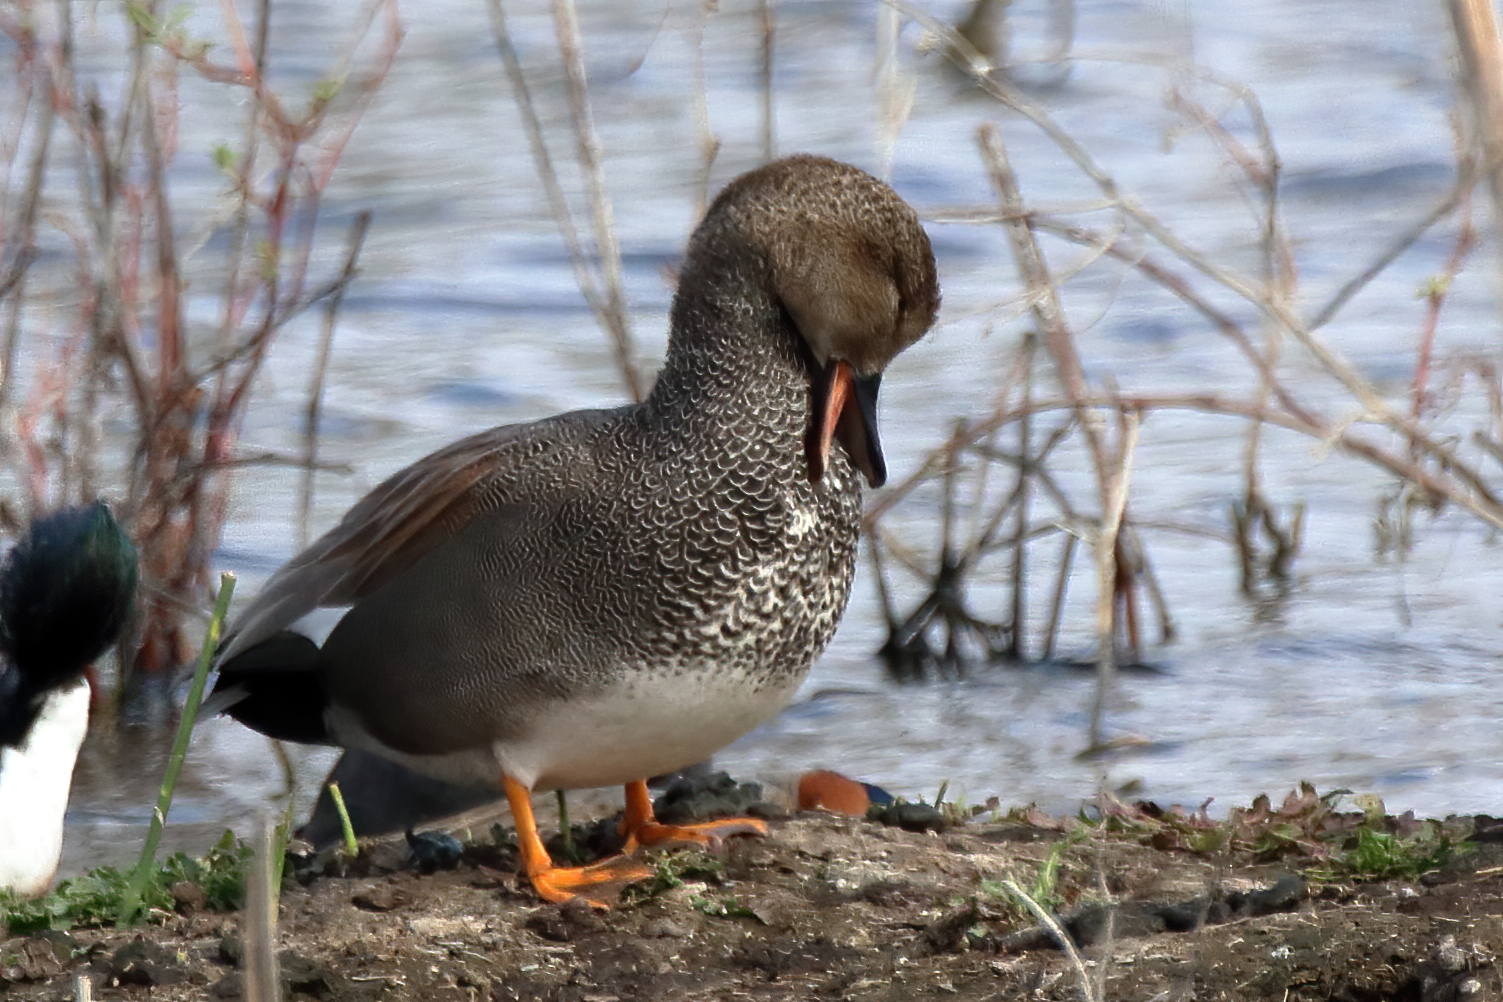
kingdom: Animalia
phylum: Chordata
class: Aves
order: Anseriformes
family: Anatidae
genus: Mareca
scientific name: Mareca strepera
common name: Gadwall
